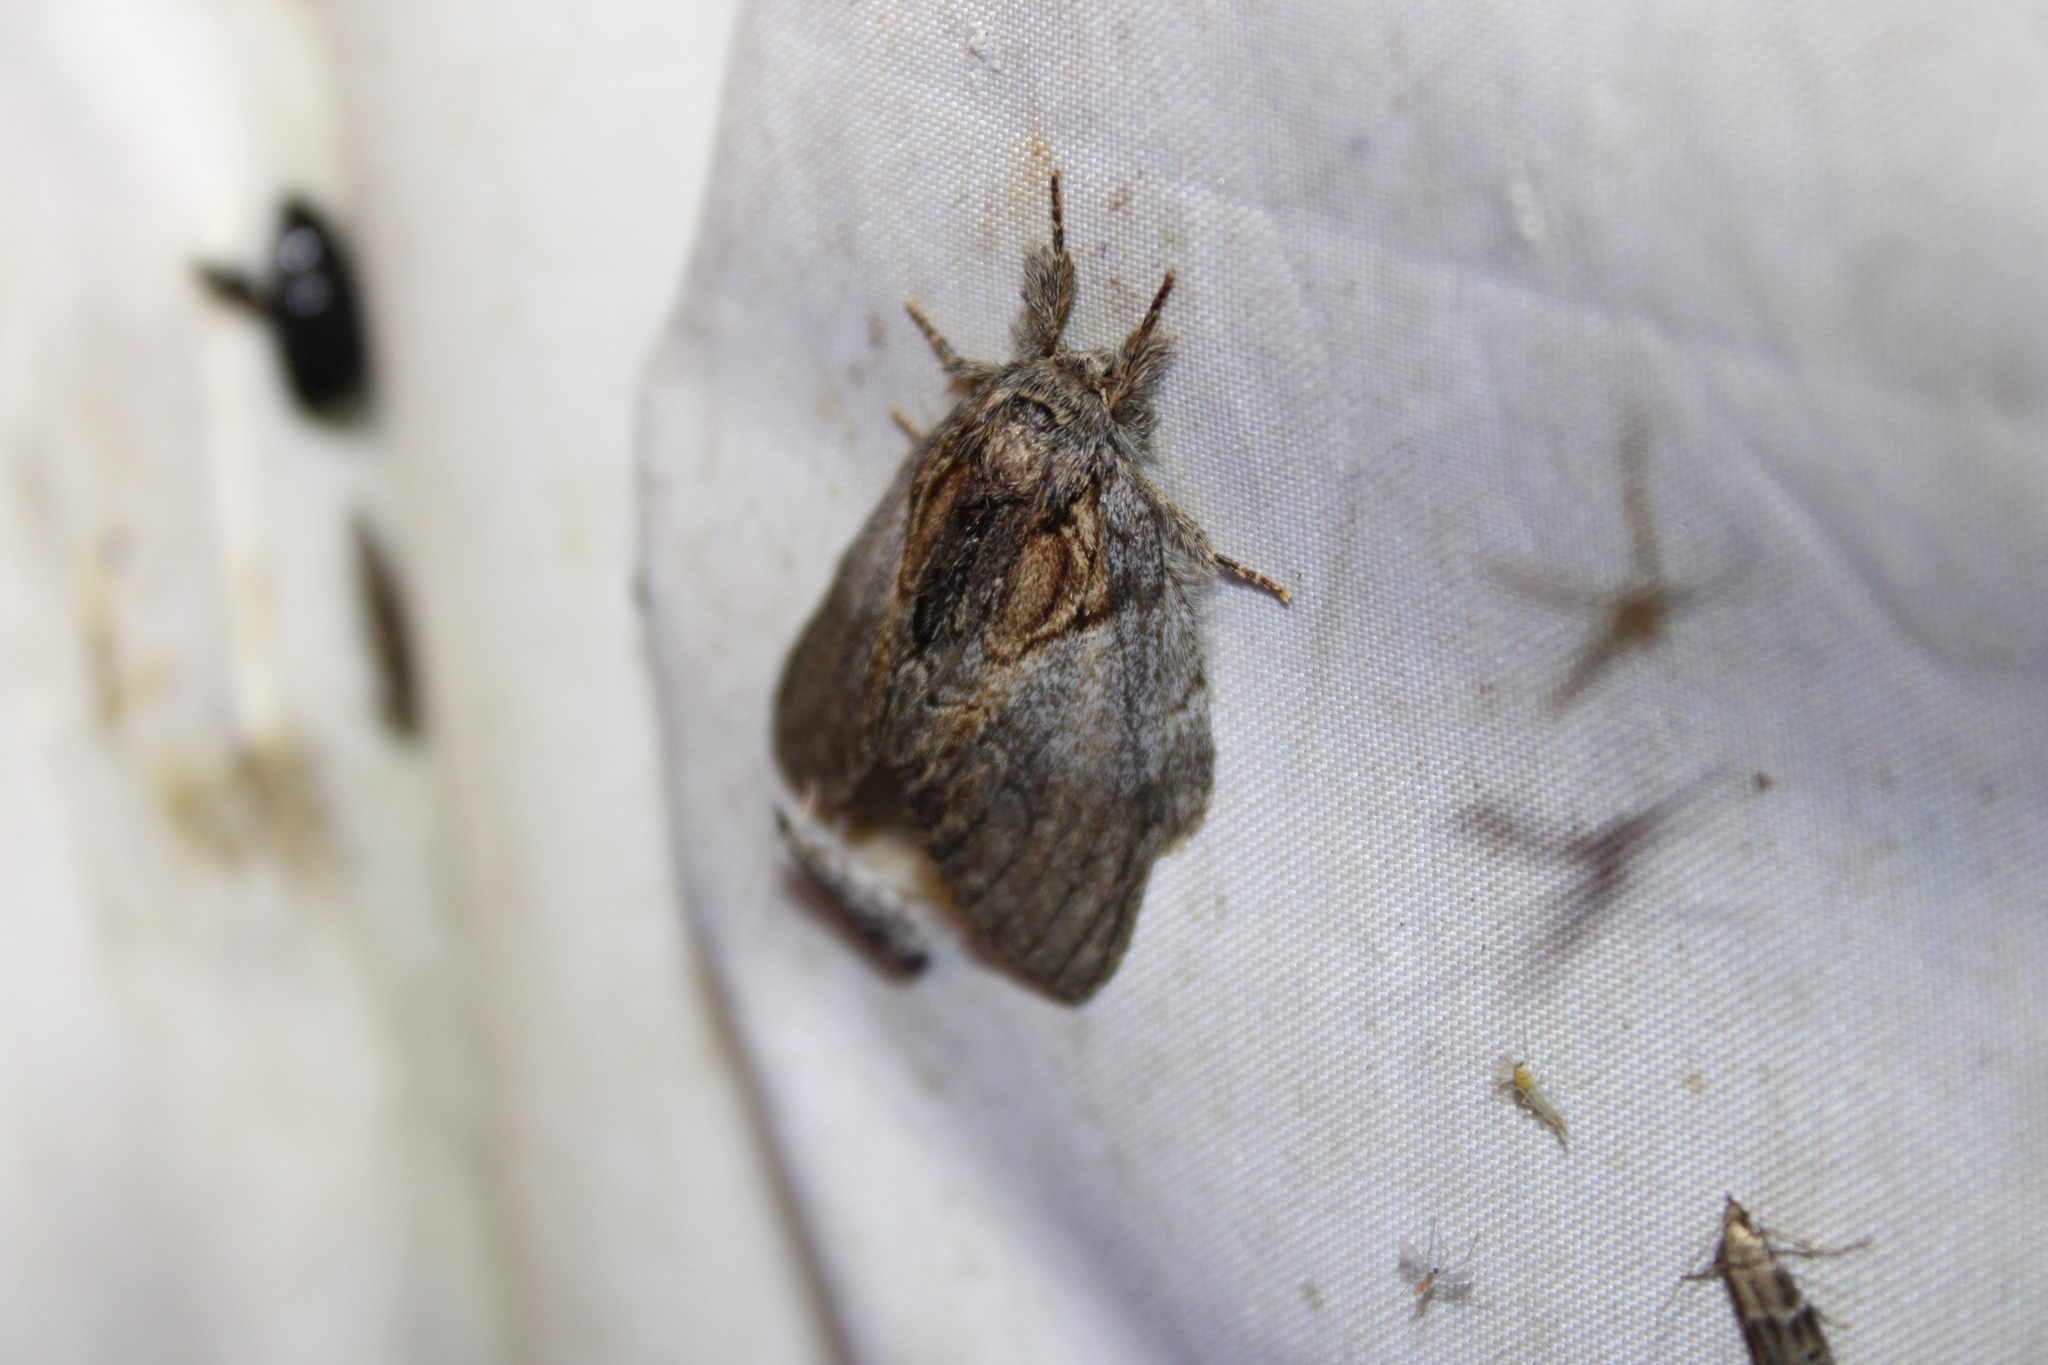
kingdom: Animalia
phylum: Arthropoda
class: Insecta
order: Lepidoptera
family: Notodontidae
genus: Peridea
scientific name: Peridea basitriens
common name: Oval-based prominent
